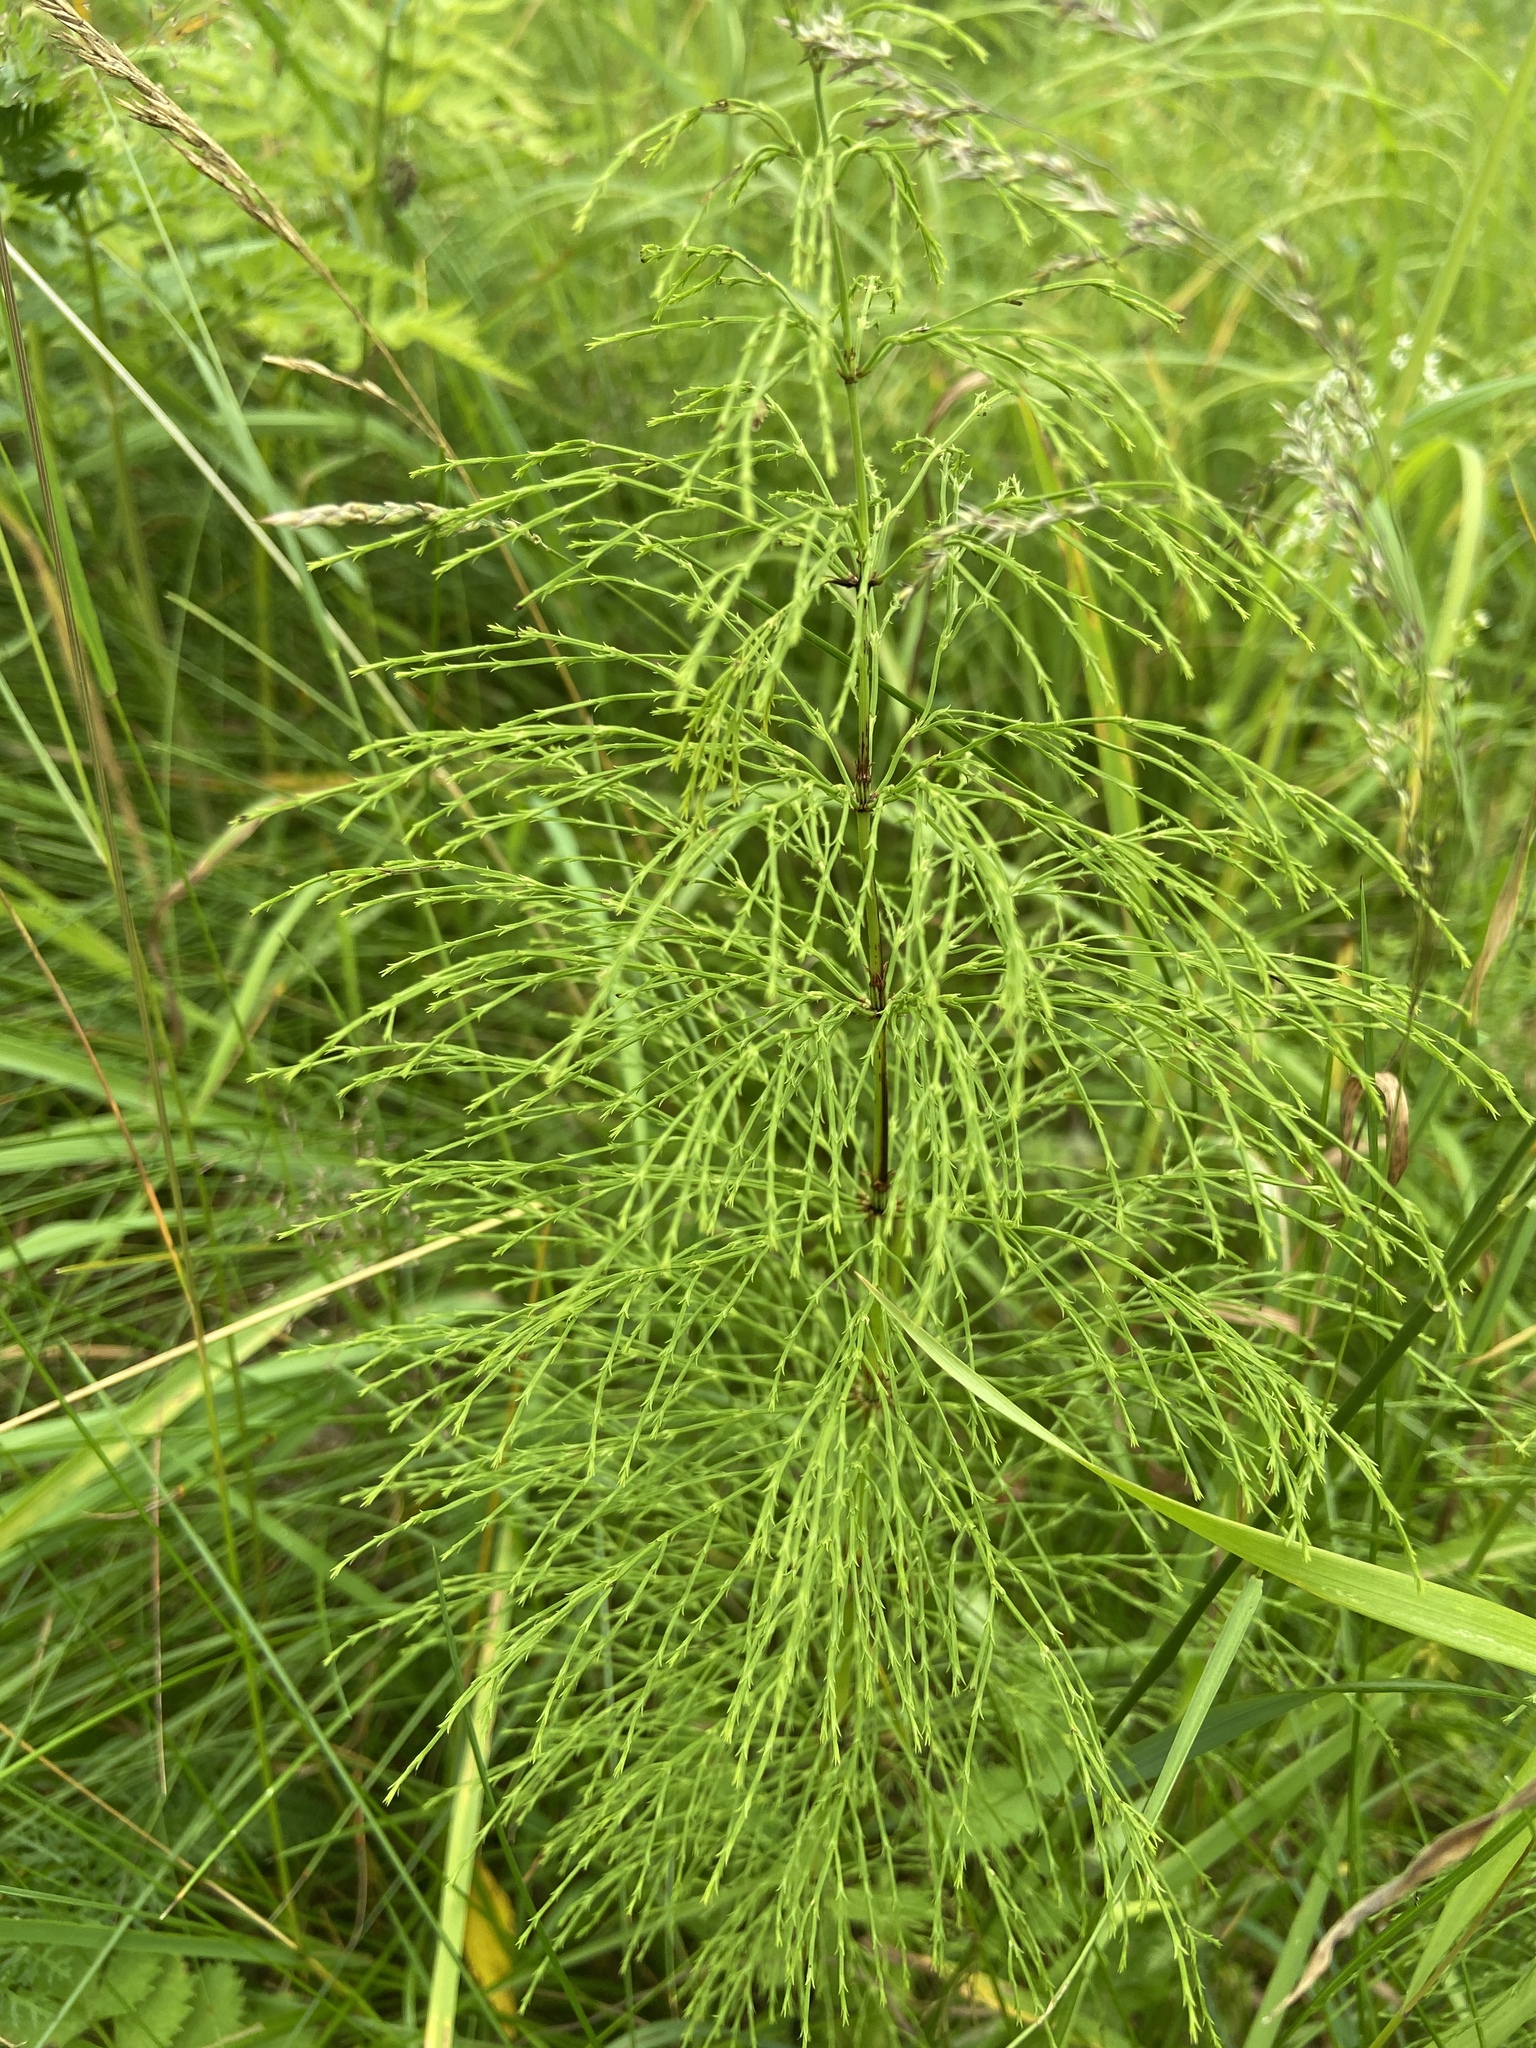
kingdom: Plantae
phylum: Tracheophyta
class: Polypodiopsida
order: Equisetales
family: Equisetaceae
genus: Equisetum
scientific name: Equisetum sylvaticum
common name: Wood horsetail
